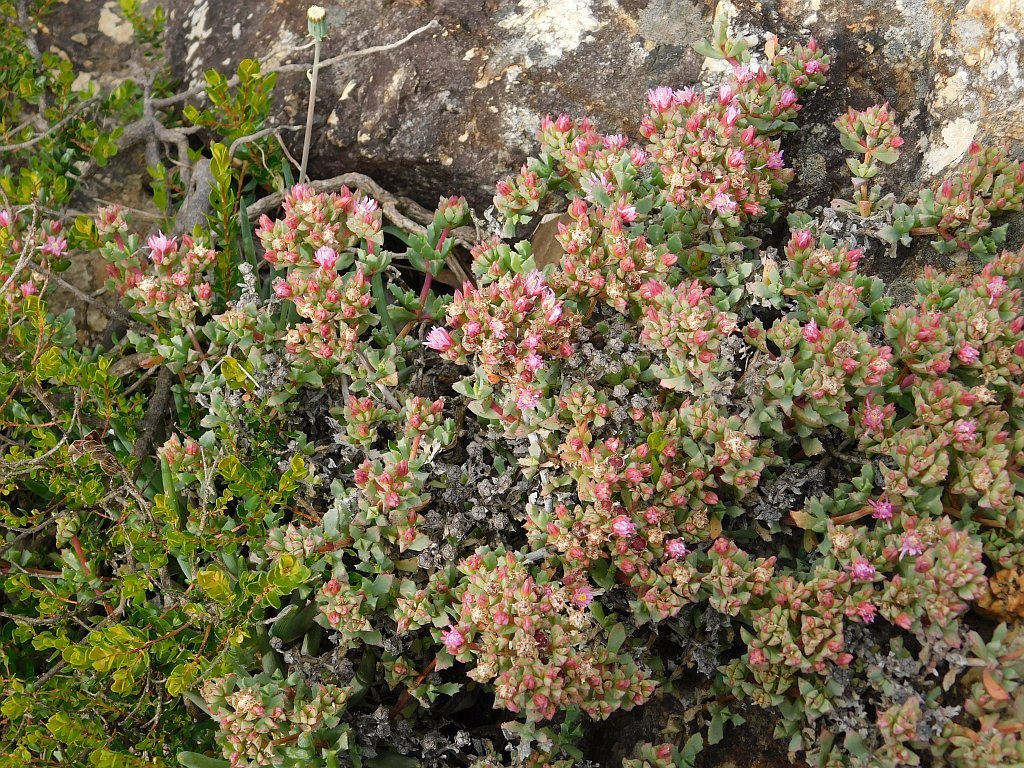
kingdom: Plantae
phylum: Tracheophyta
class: Magnoliopsida
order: Caryophyllales
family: Aizoaceae
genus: Oscularia
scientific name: Oscularia deltoides
